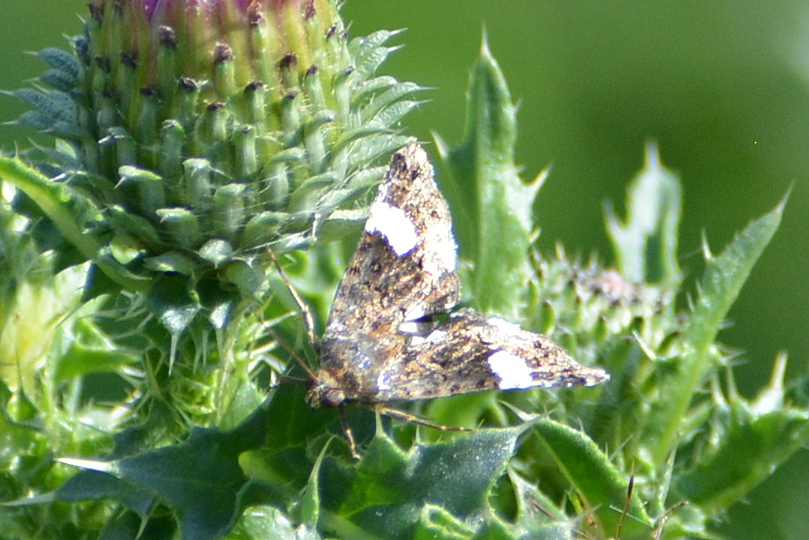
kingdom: Animalia
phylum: Arthropoda
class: Insecta
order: Lepidoptera
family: Erebidae
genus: Tyta
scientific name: Tyta luctuosa
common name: Four-spotted
